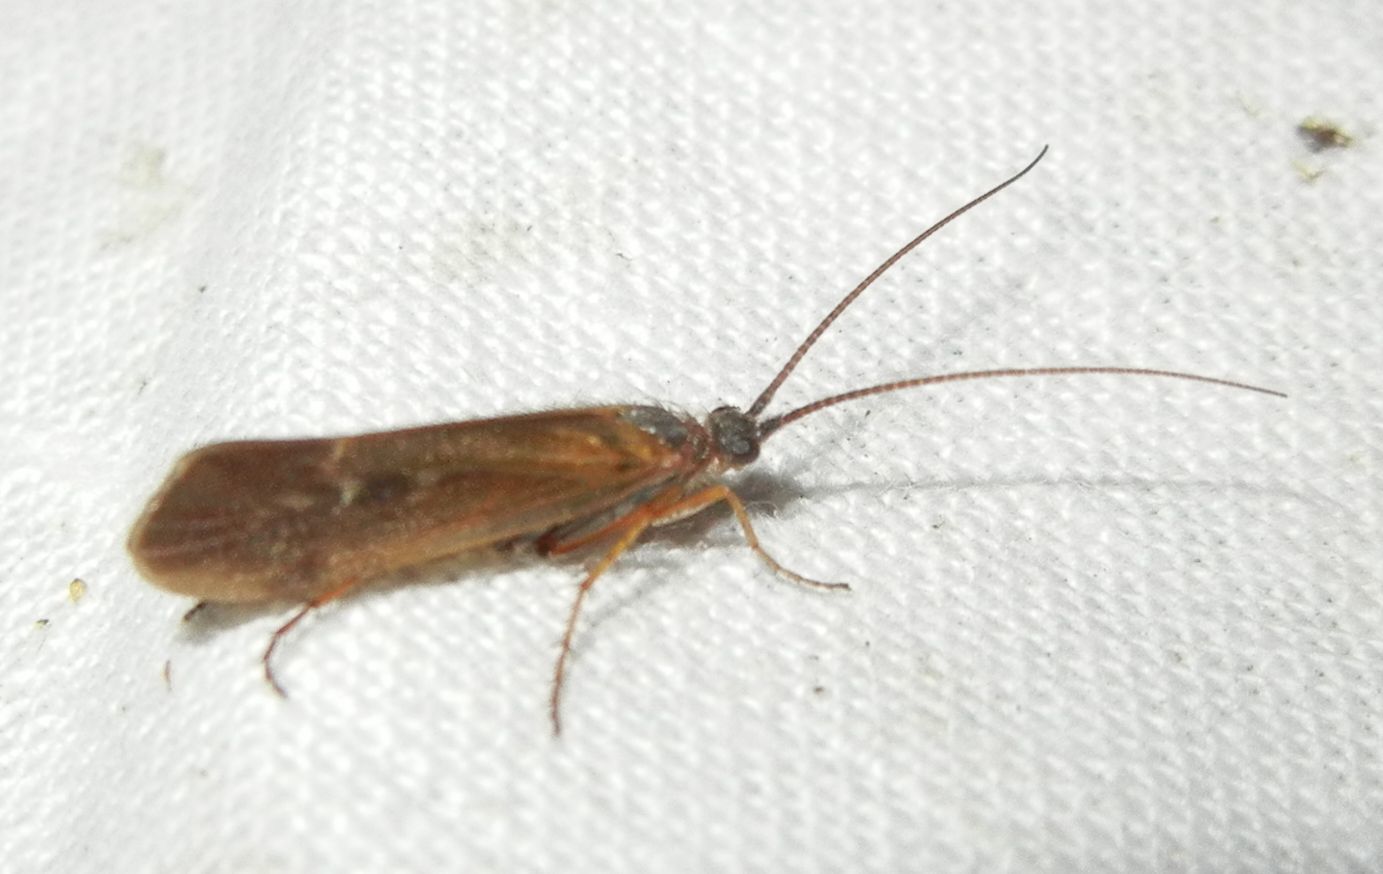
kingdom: Animalia
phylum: Arthropoda
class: Insecta
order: Trichoptera
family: Limnephilidae
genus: Limnephilus
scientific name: Limnephilus auricula
